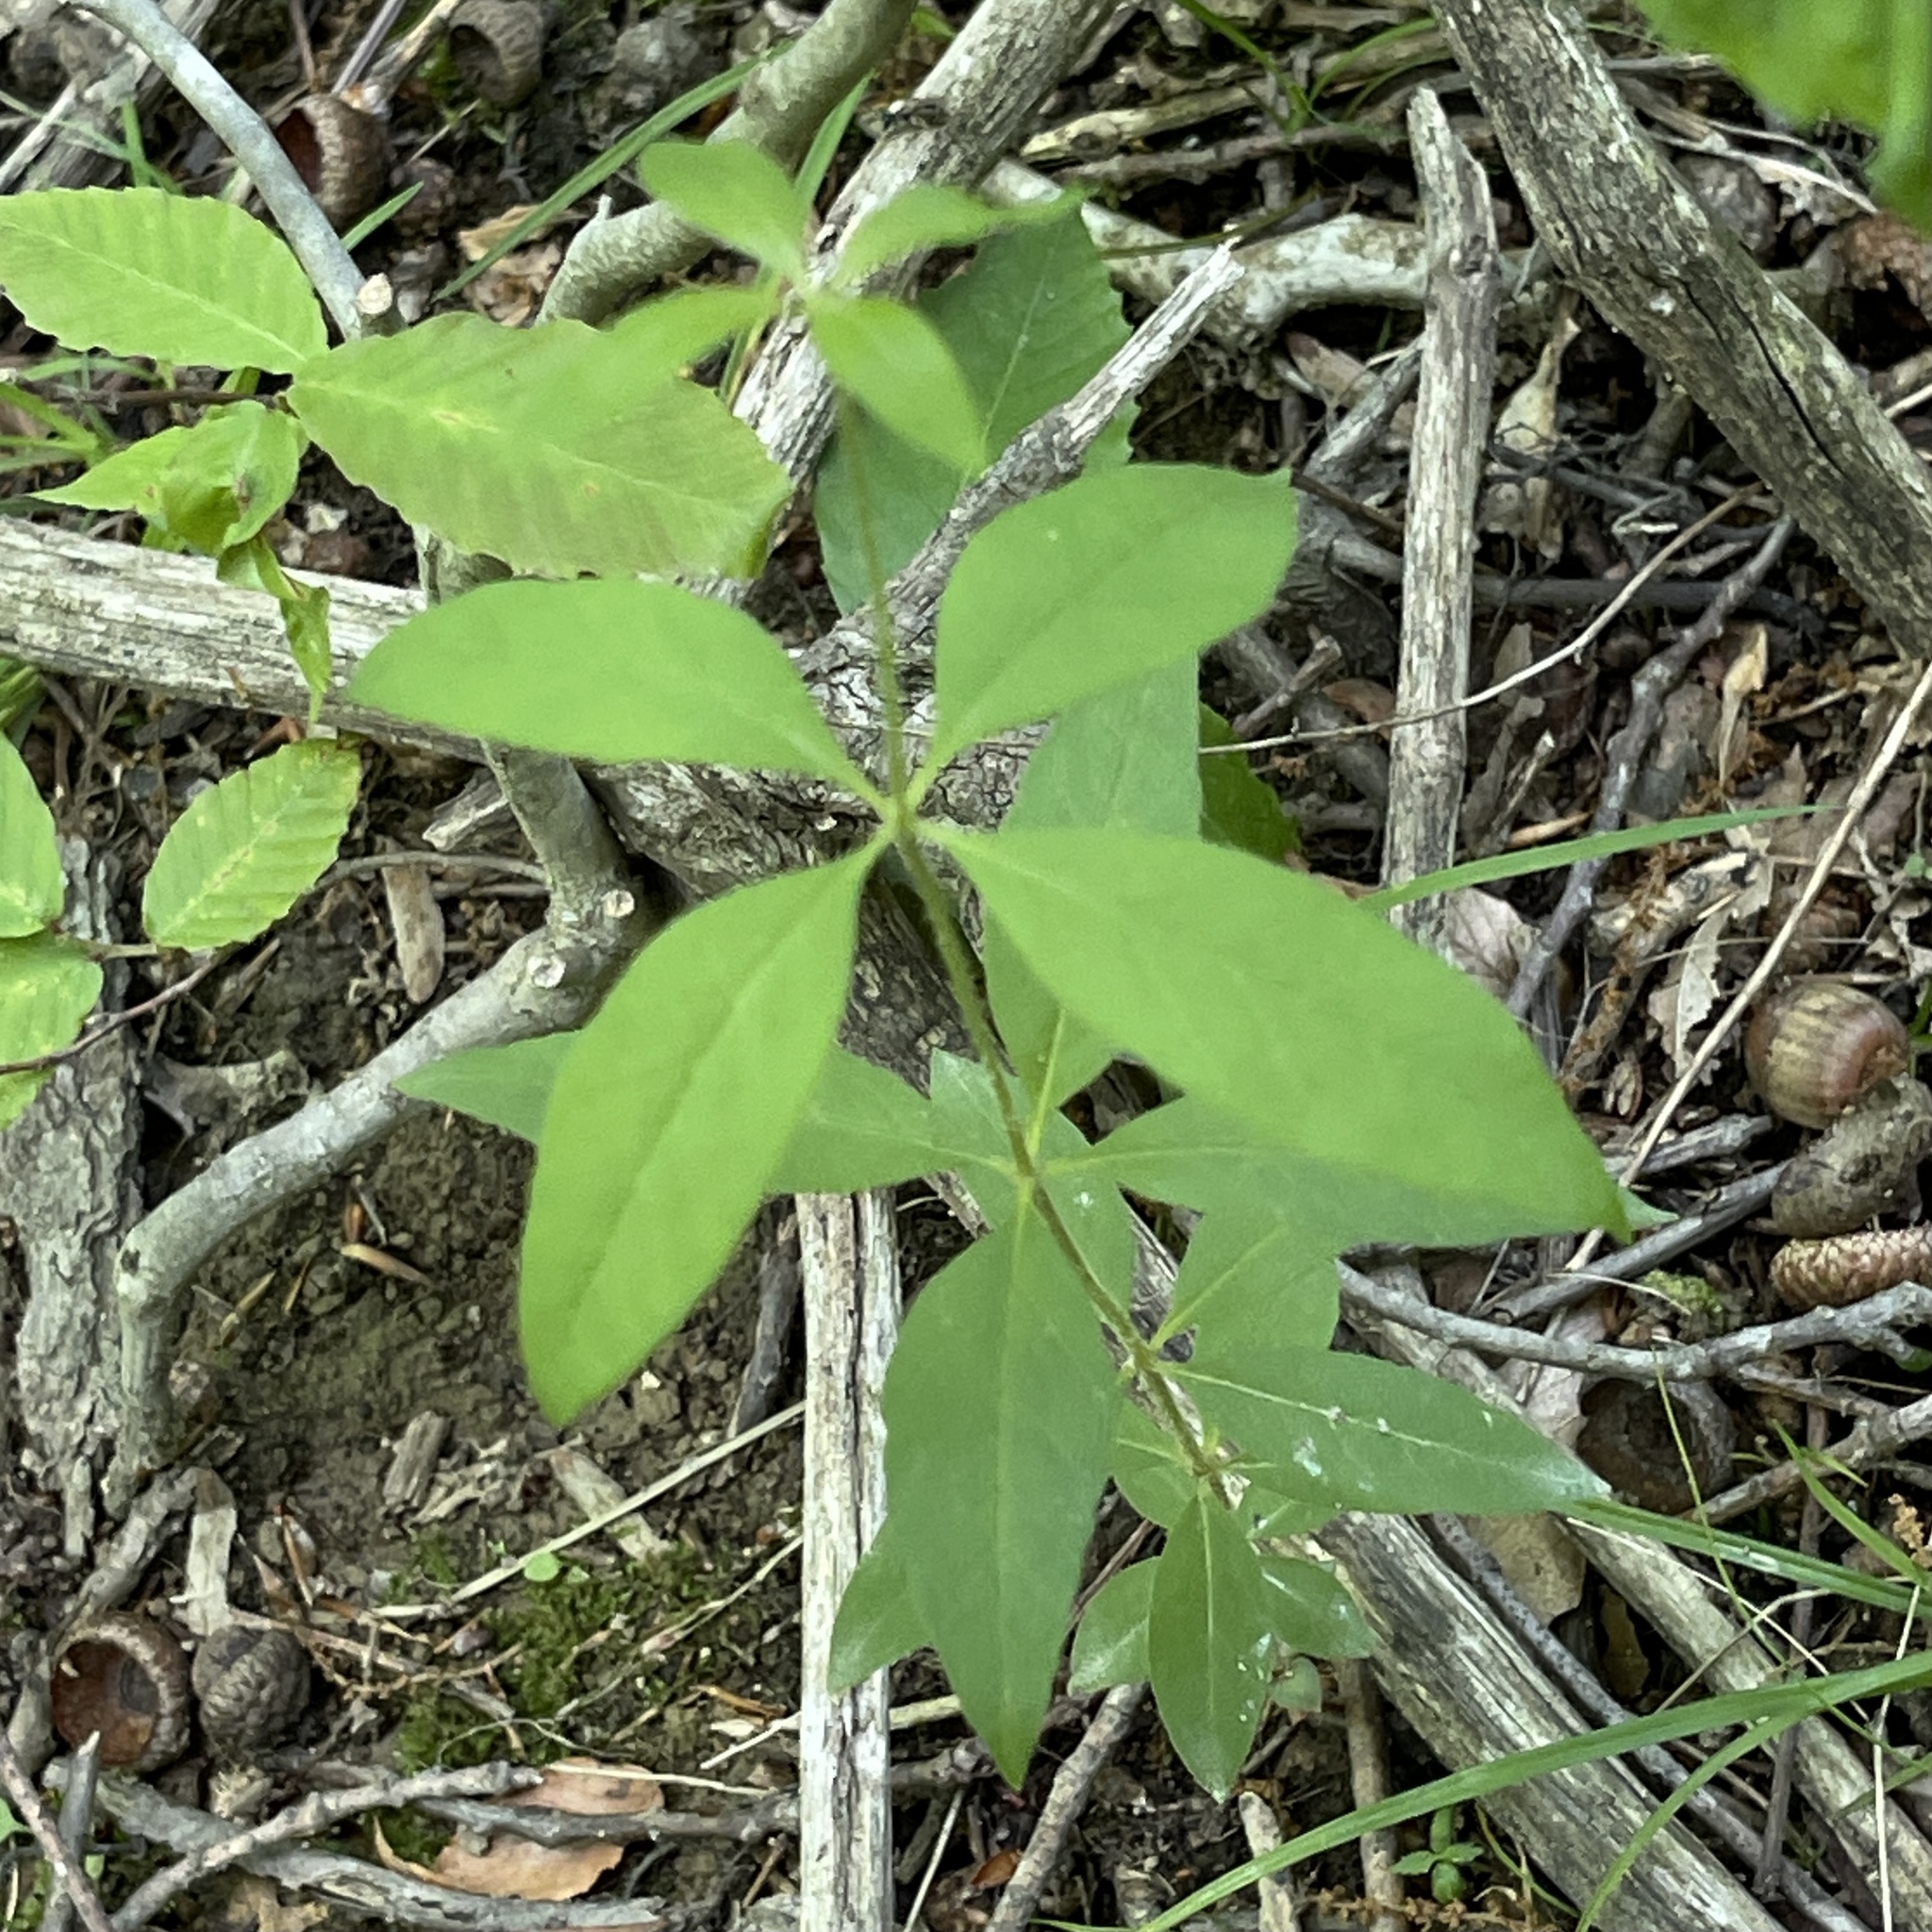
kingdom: Plantae
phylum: Tracheophyta
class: Magnoliopsida
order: Ericales
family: Primulaceae
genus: Lysimachia
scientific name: Lysimachia quadrifolia
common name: Whorled loosestrife
